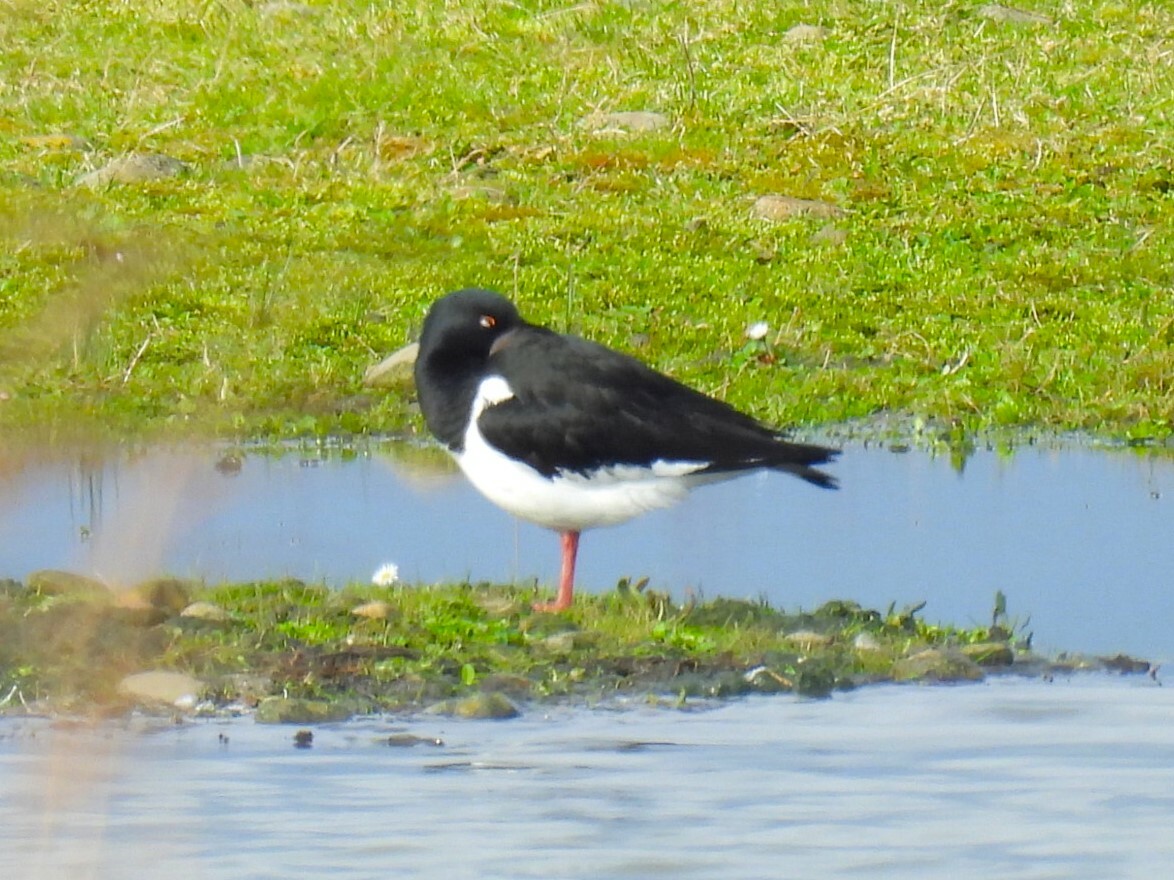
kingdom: Animalia
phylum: Chordata
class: Aves
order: Charadriiformes
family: Haematopodidae
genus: Haematopus
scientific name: Haematopus ostralegus
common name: Eurasian oystercatcher
